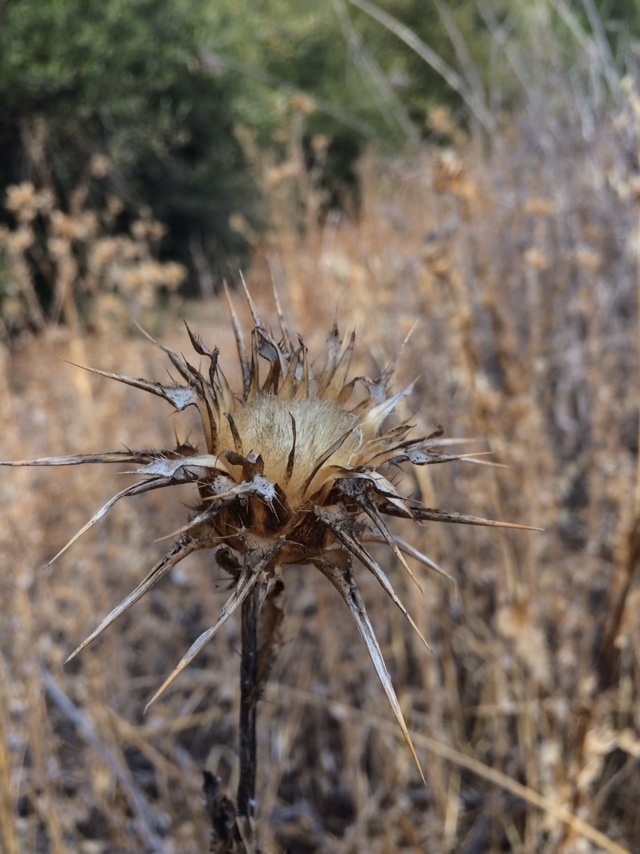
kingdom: Plantae
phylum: Tracheophyta
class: Magnoliopsida
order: Asterales
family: Asteraceae
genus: Silybum
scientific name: Silybum marianum
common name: Milk thistle
